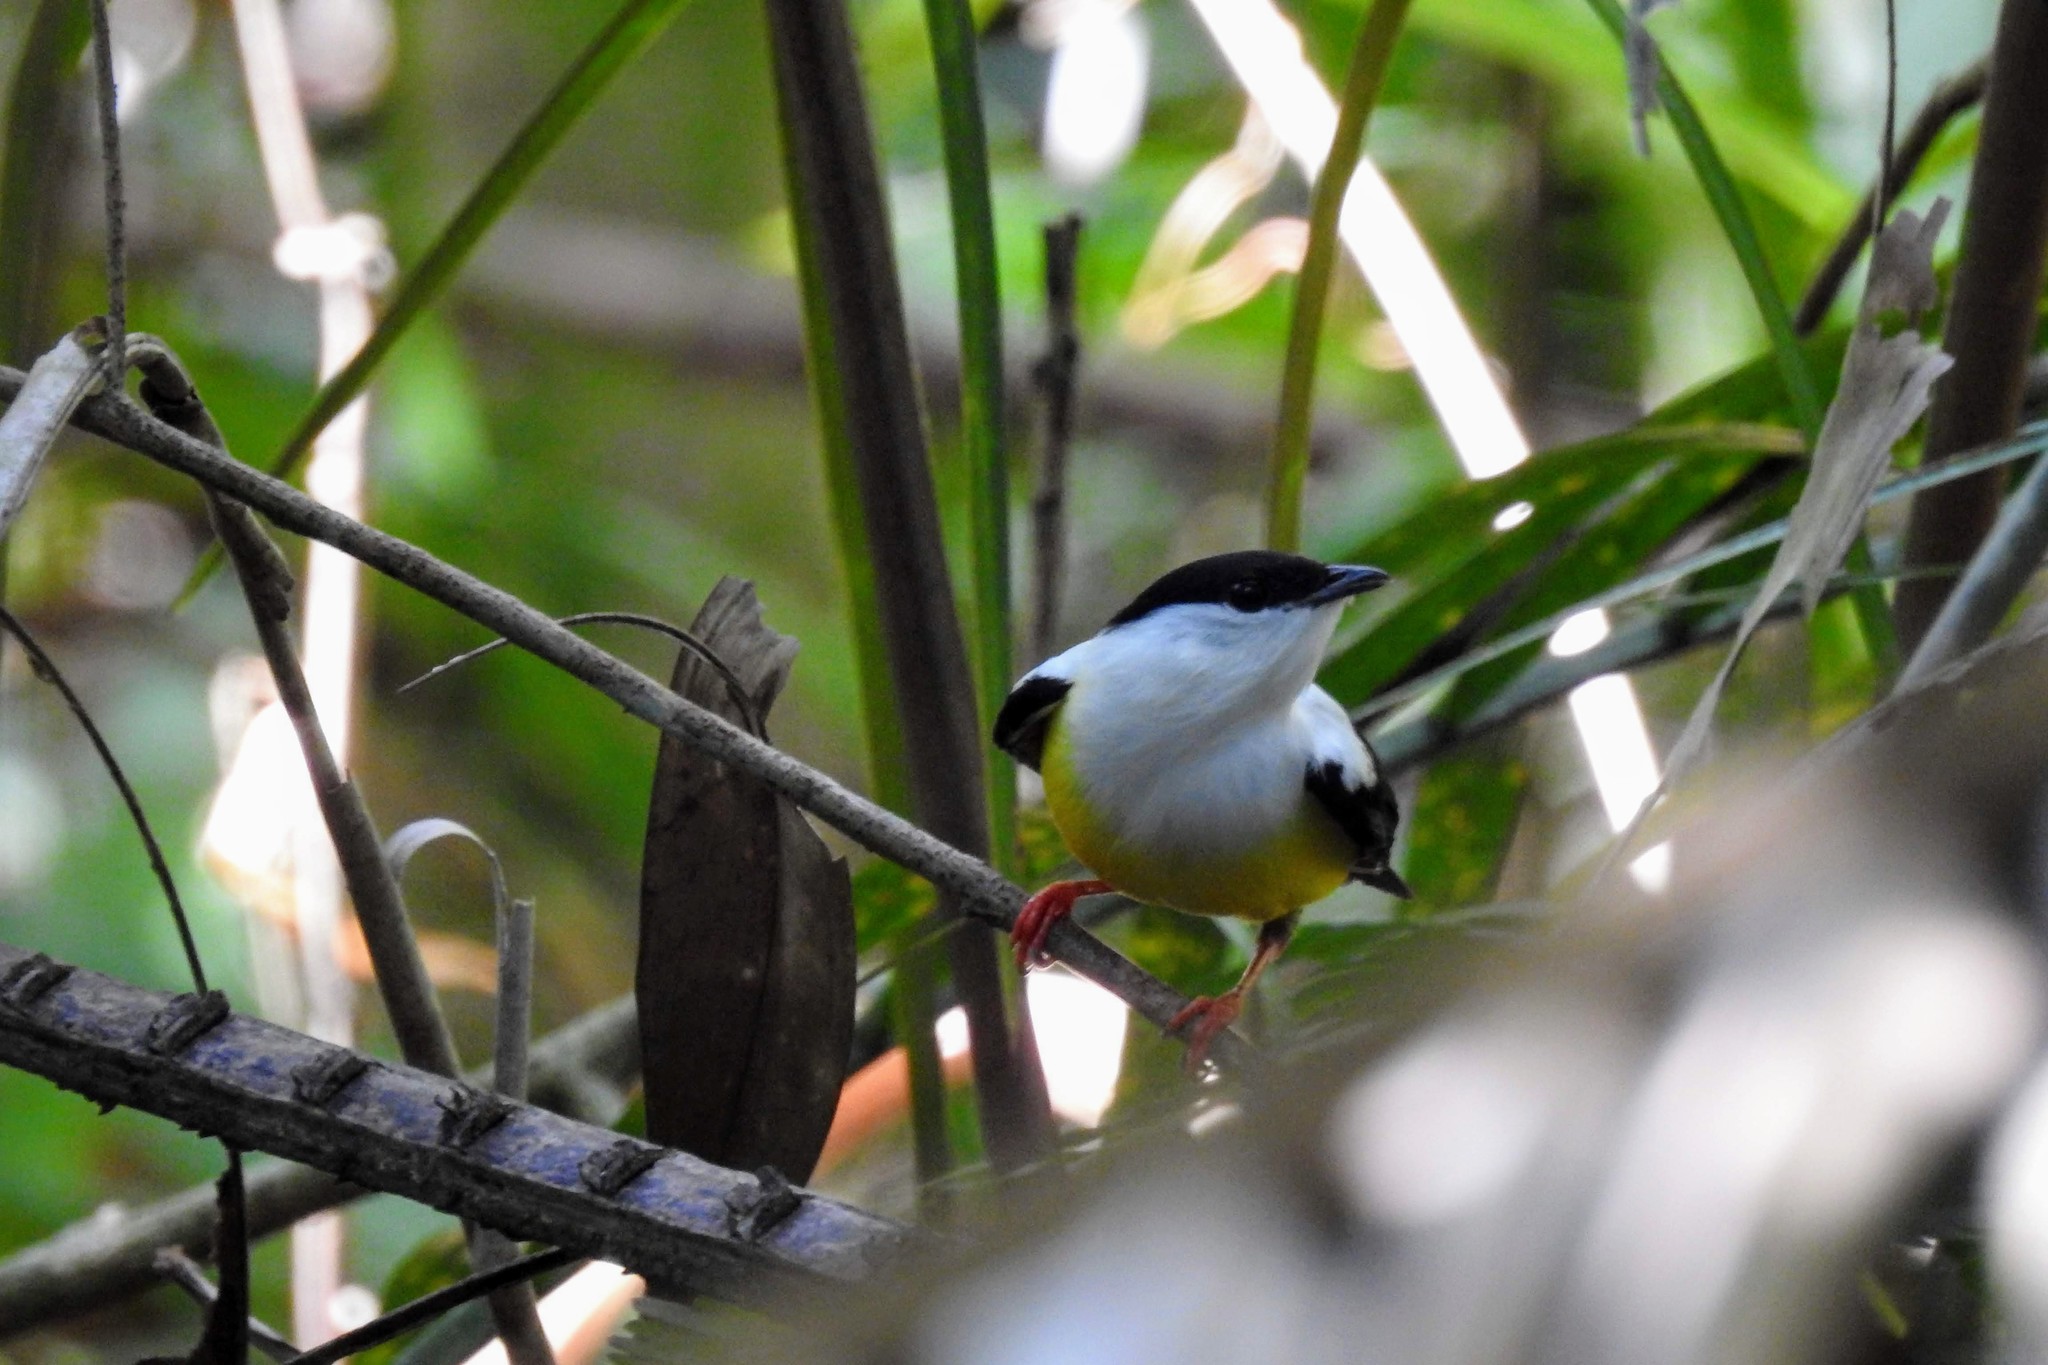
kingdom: Animalia
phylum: Chordata
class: Aves
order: Passeriformes
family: Pipridae
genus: Manacus
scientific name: Manacus candei
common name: White-collared manakin
